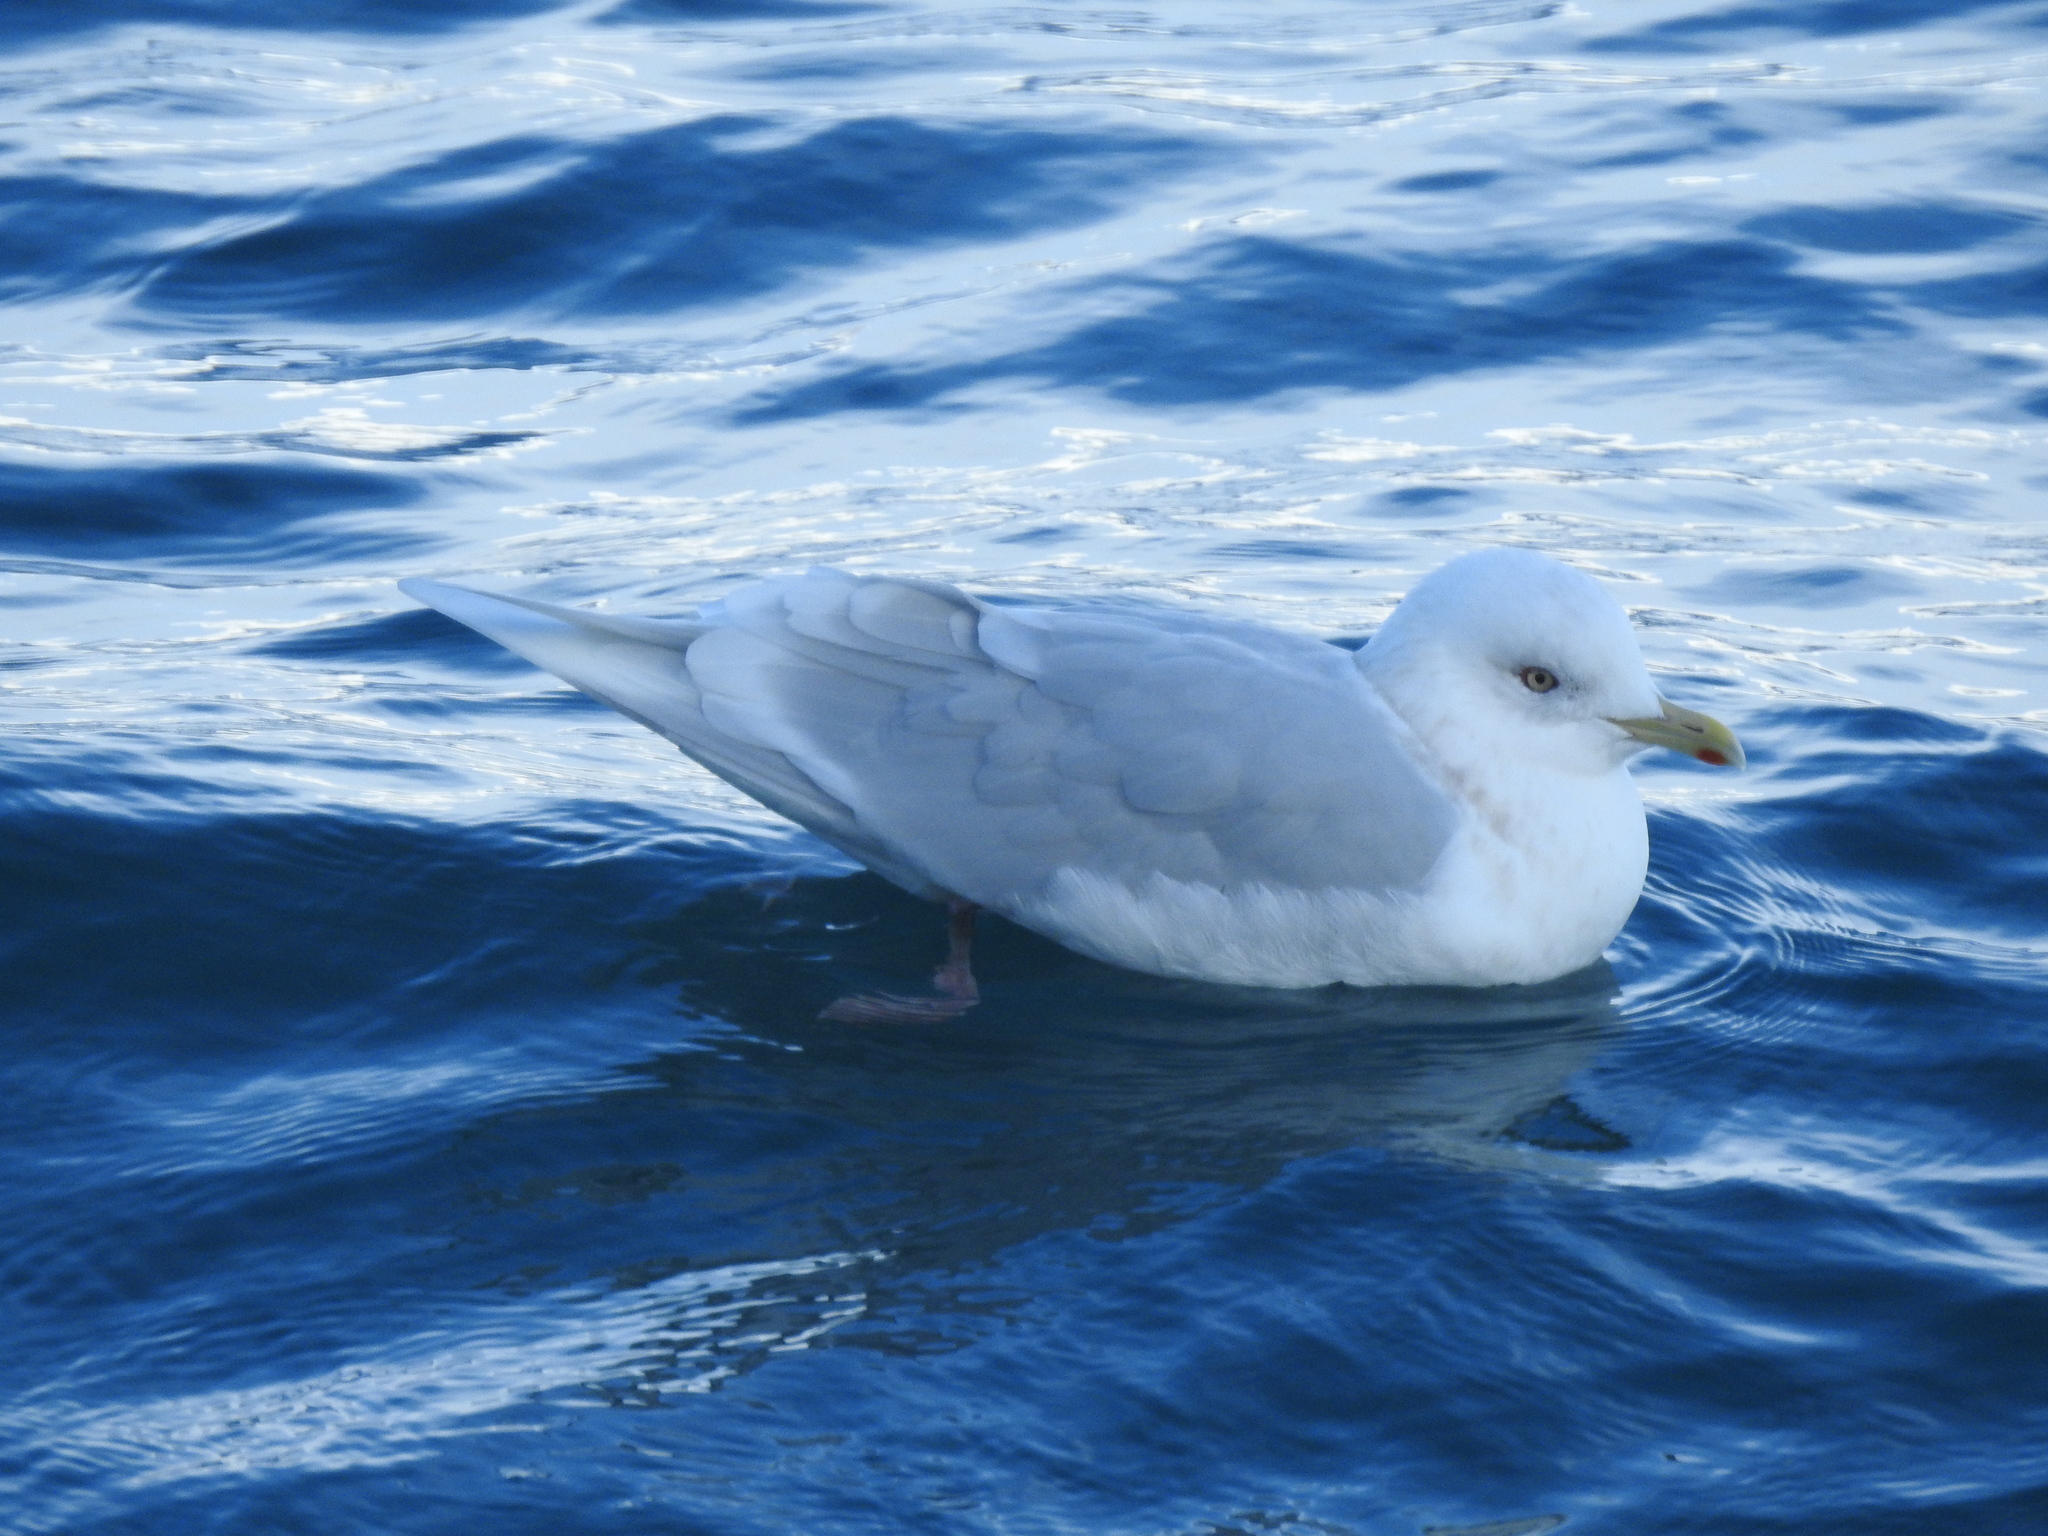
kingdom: Animalia
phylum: Chordata
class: Aves
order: Charadriiformes
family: Laridae
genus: Larus
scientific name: Larus glaucoides
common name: Iceland gull
